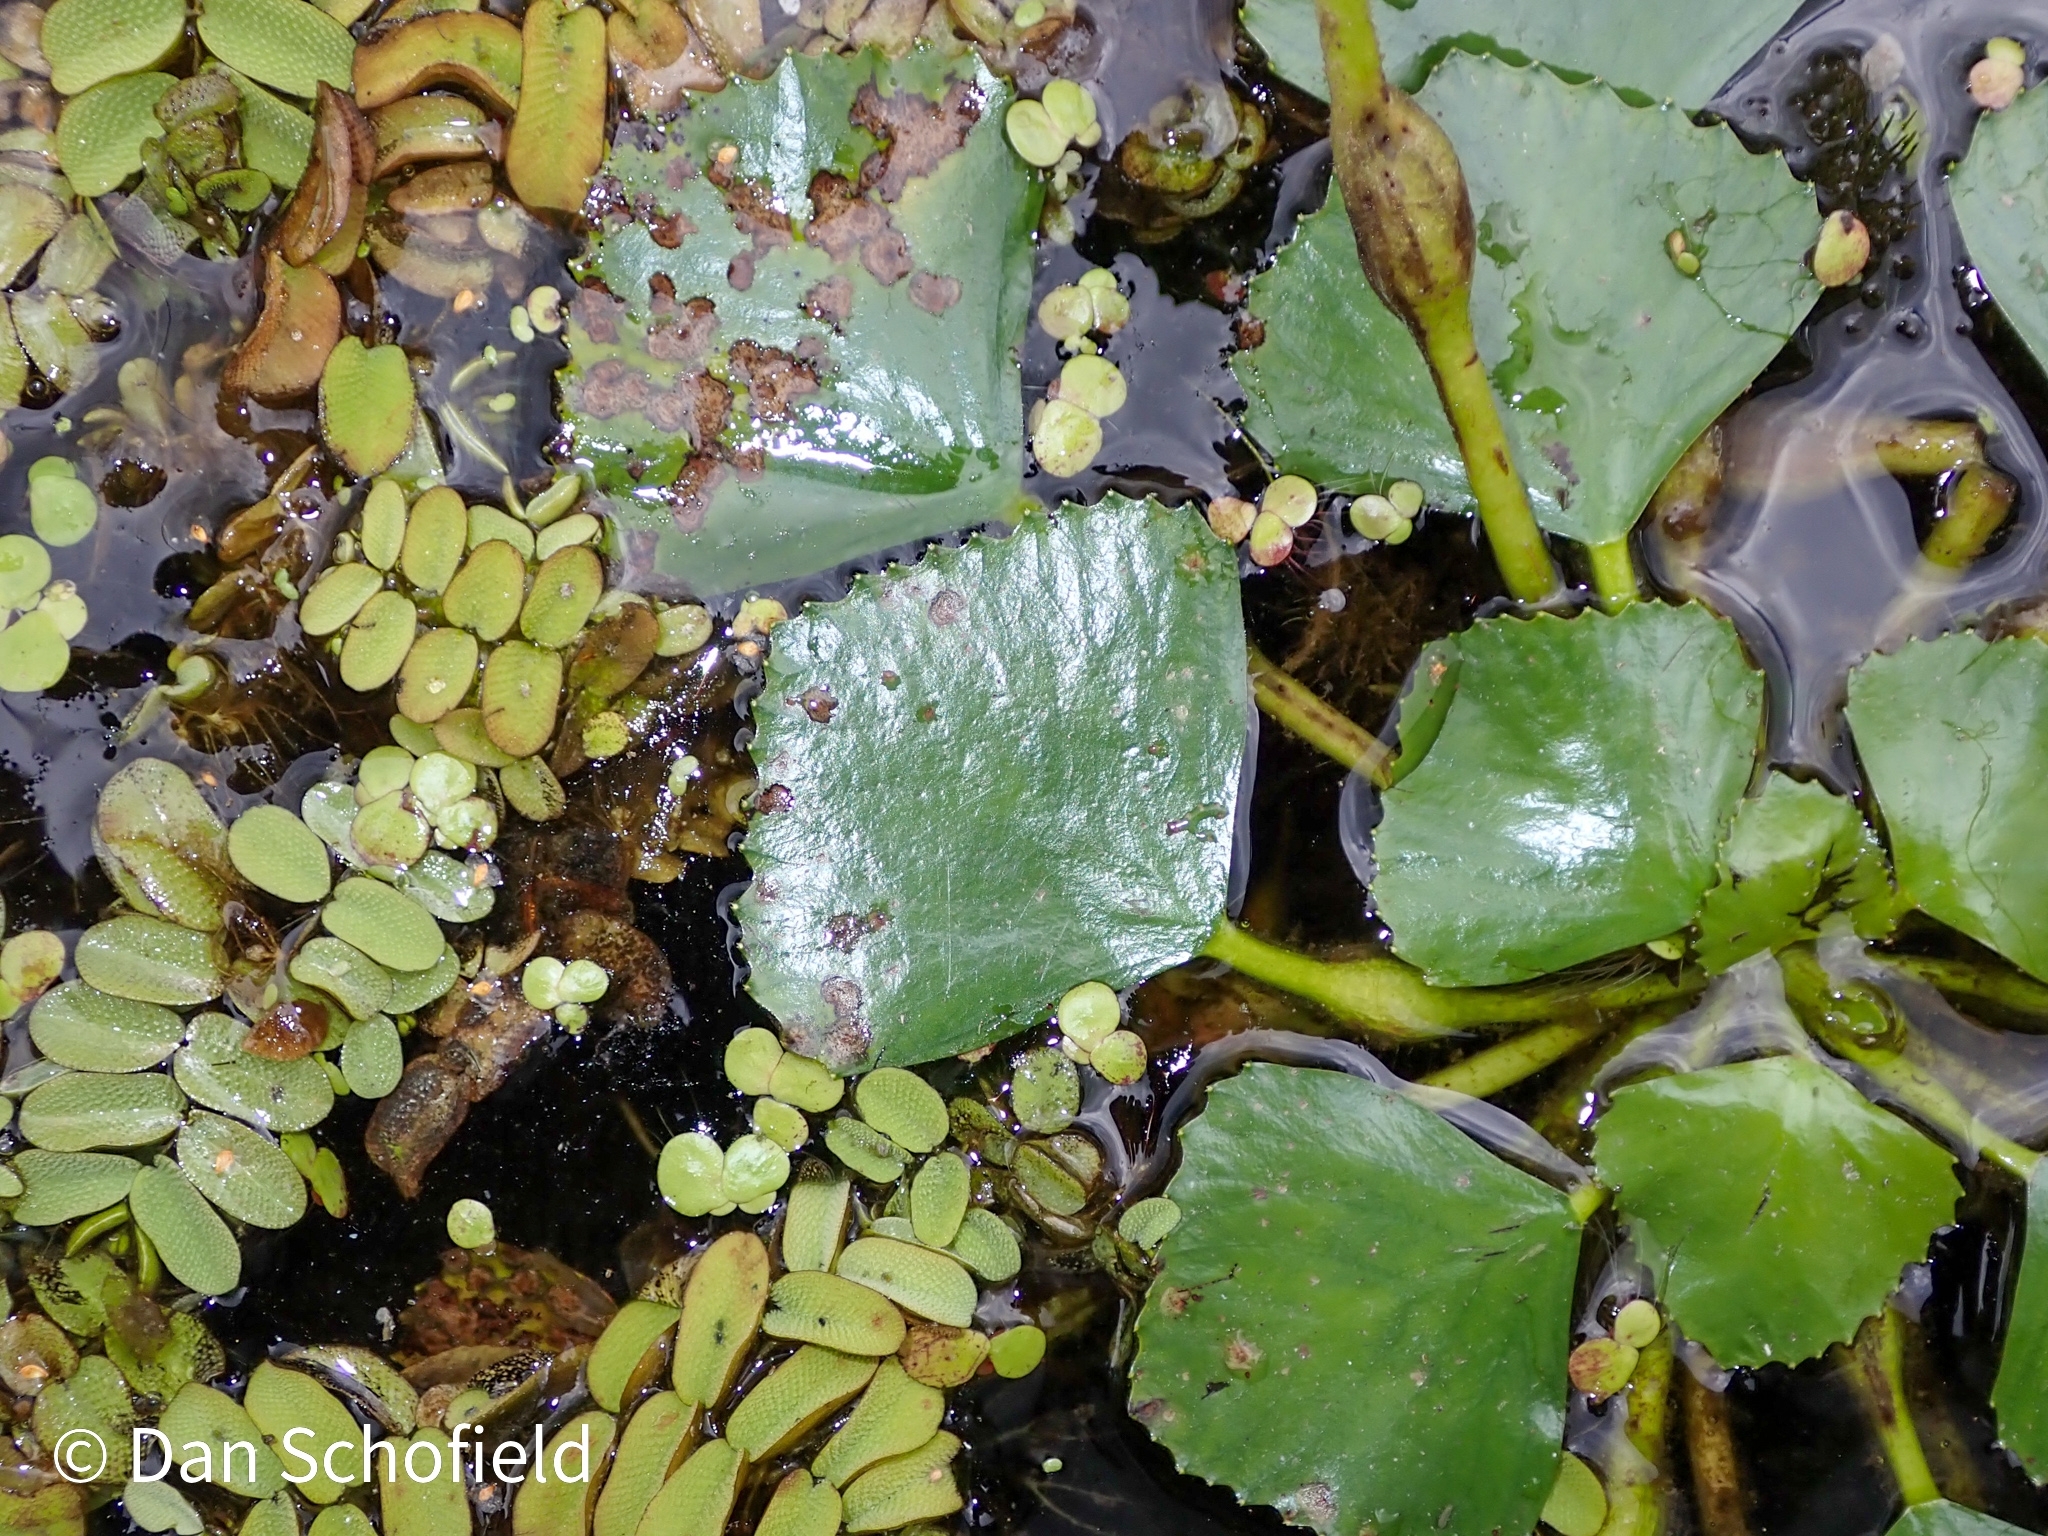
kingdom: Plantae
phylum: Tracheophyta
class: Magnoliopsida
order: Myrtales
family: Lythraceae
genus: Trapa
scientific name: Trapa natans
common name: Water chestnut
